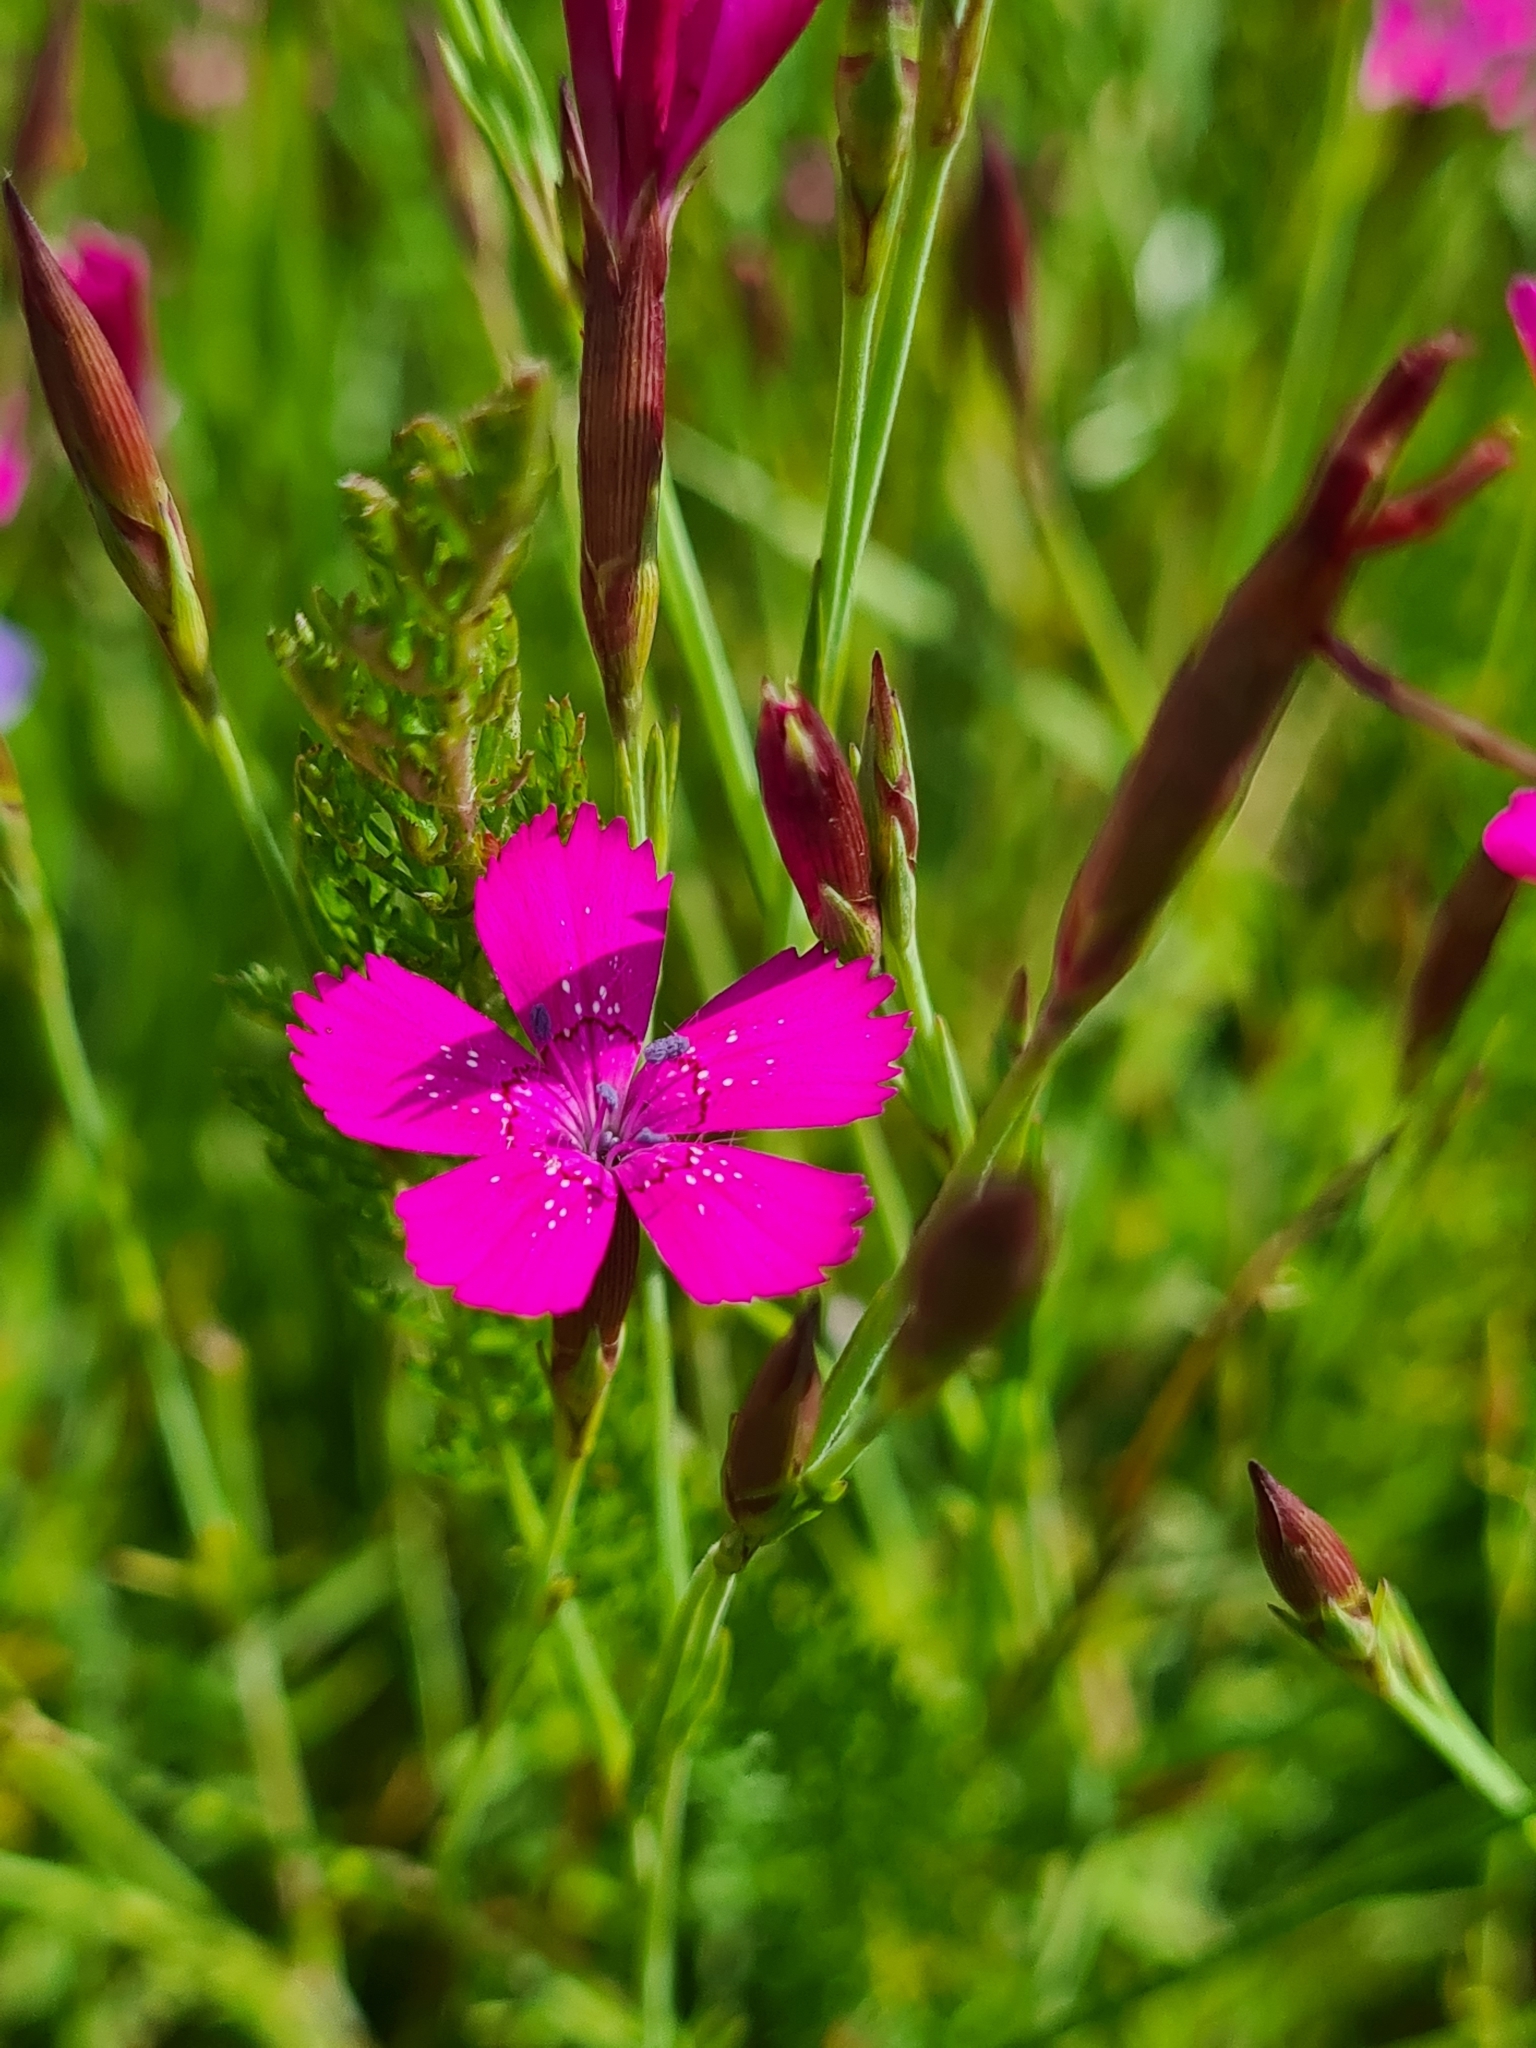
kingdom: Plantae
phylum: Tracheophyta
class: Magnoliopsida
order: Caryophyllales
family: Caryophyllaceae
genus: Dianthus
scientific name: Dianthus deltoides
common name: Maiden pink
